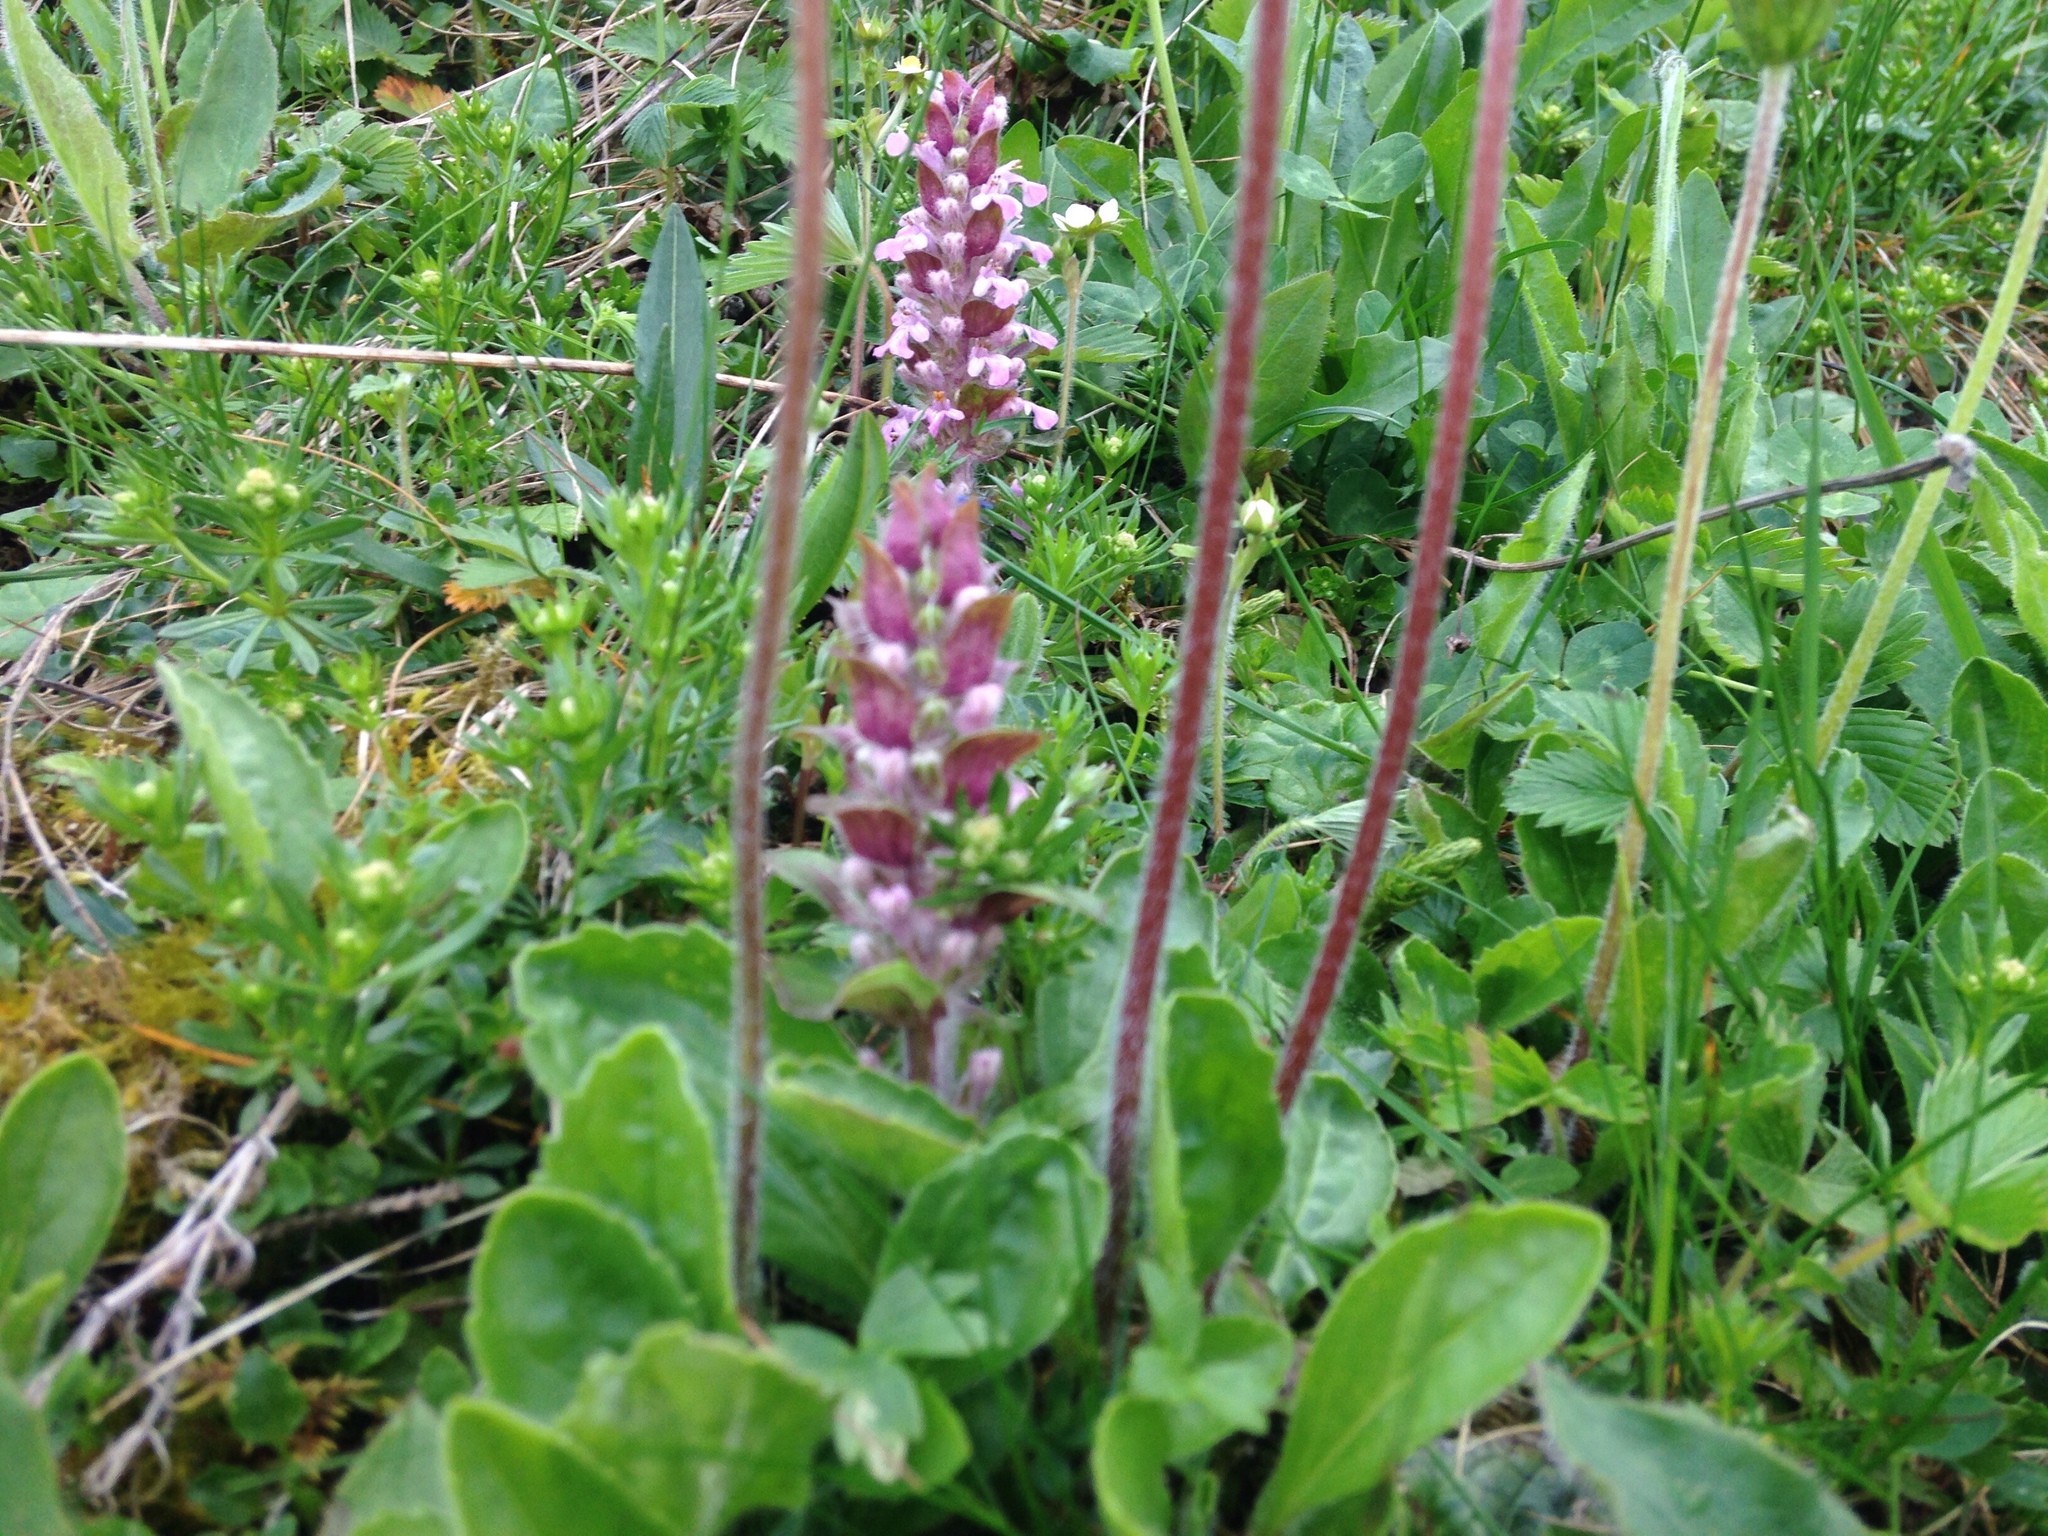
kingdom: Plantae
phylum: Tracheophyta
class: Magnoliopsida
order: Lamiales
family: Lamiaceae
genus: Ajuga
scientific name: Ajuga reptans
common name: Bugle
